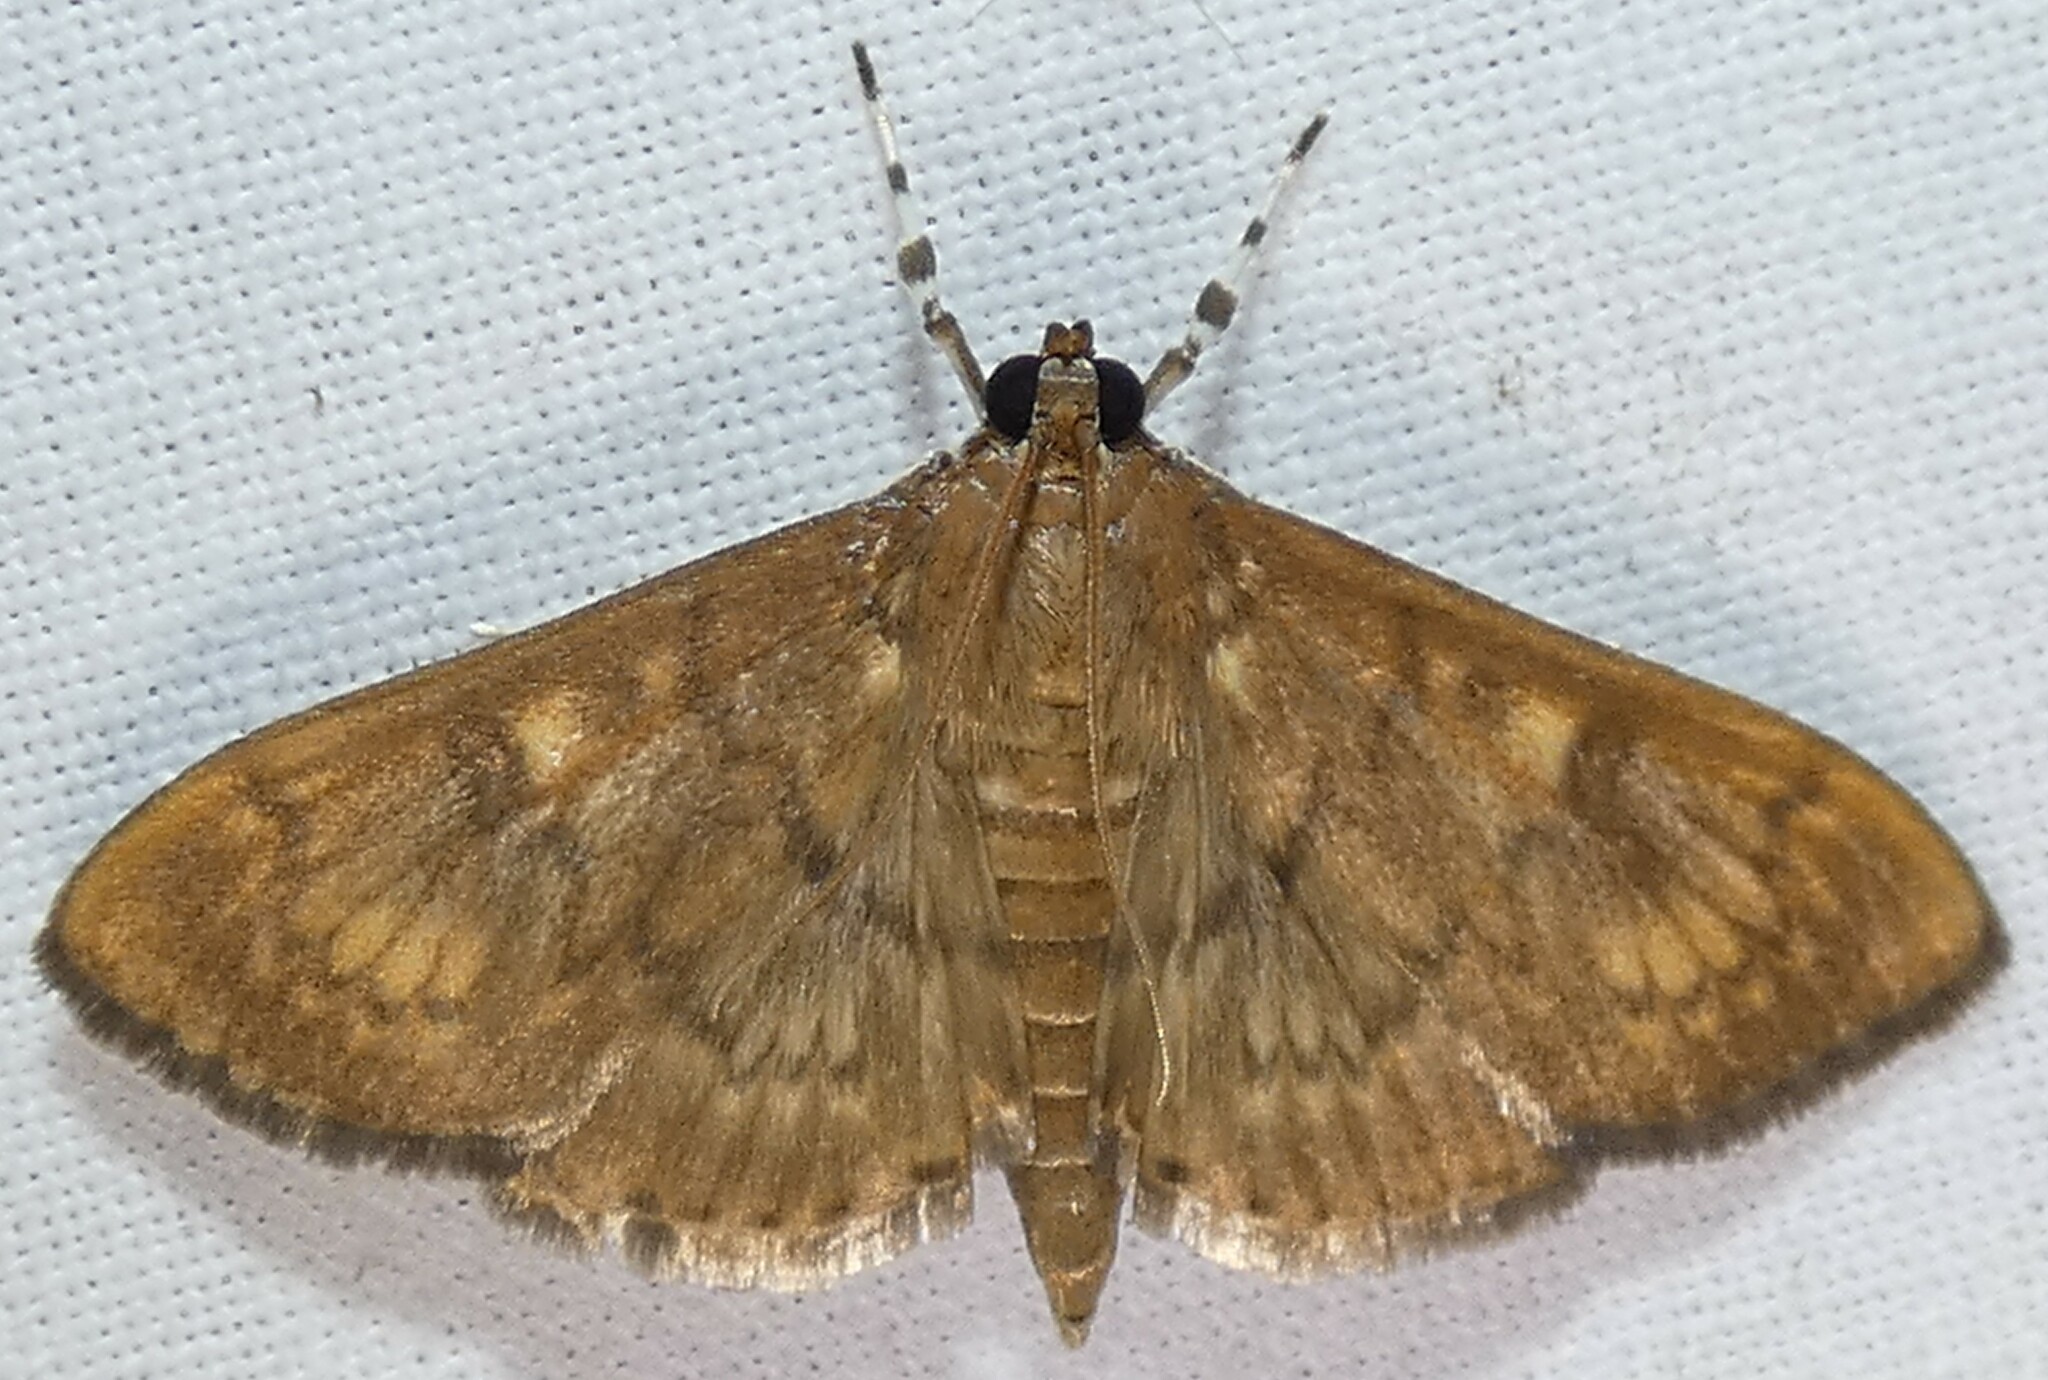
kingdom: Animalia
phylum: Arthropoda
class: Insecta
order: Lepidoptera
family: Crambidae
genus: Syllepte
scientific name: Syllepte obscuralis
